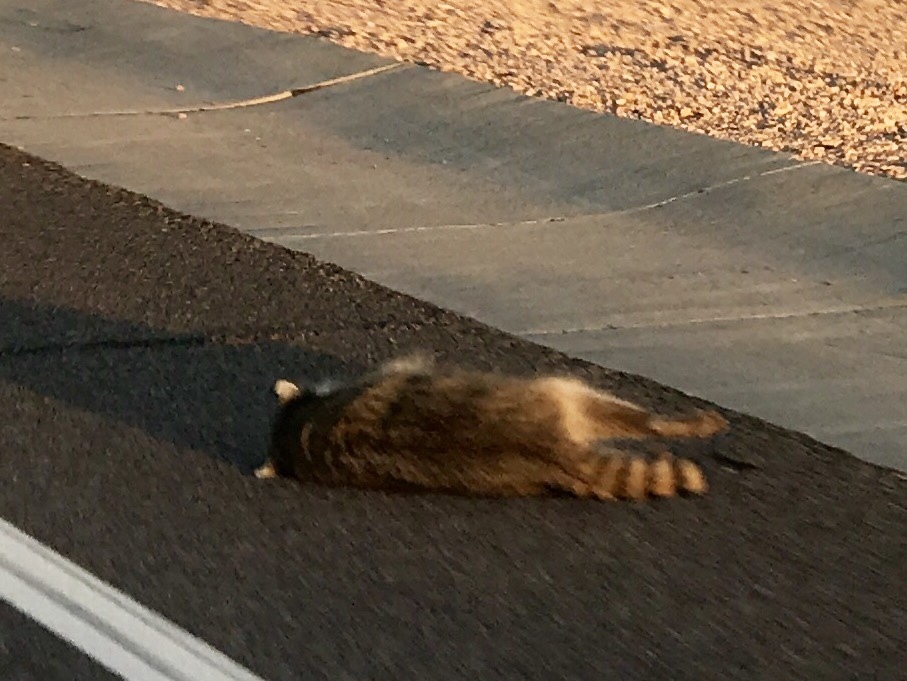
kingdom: Animalia
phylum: Chordata
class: Mammalia
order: Carnivora
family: Procyonidae
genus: Procyon
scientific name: Procyon lotor
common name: Raccoon
